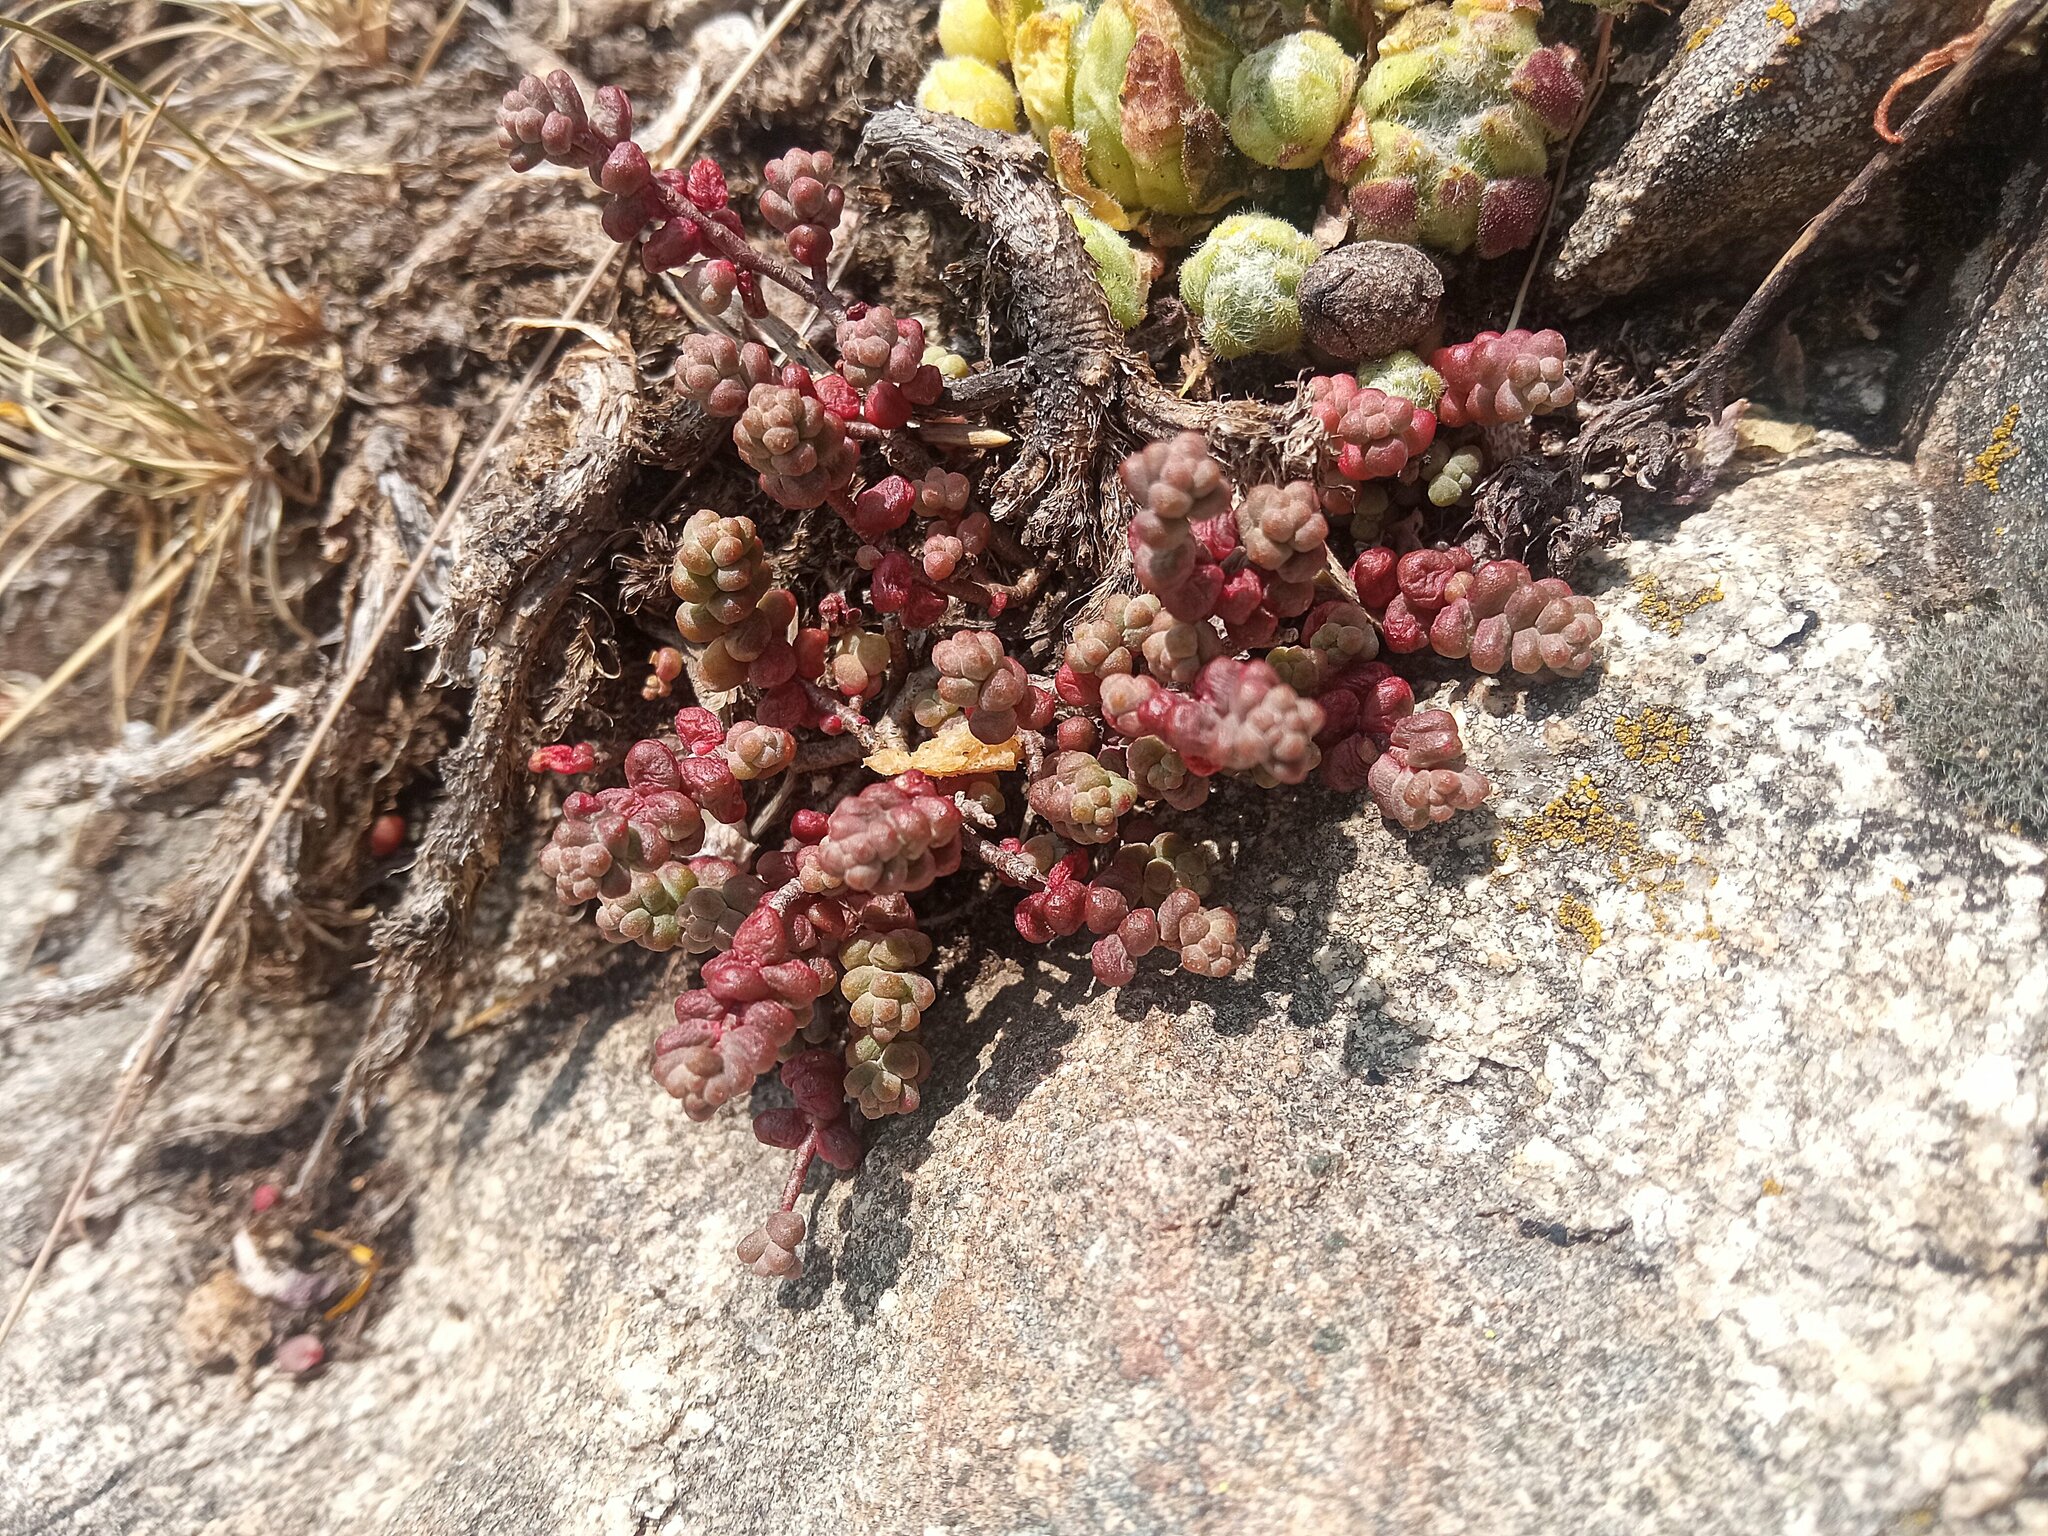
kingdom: Plantae
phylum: Tracheophyta
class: Magnoliopsida
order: Saxifragales
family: Crassulaceae
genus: Sedum
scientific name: Sedum brevifolium
